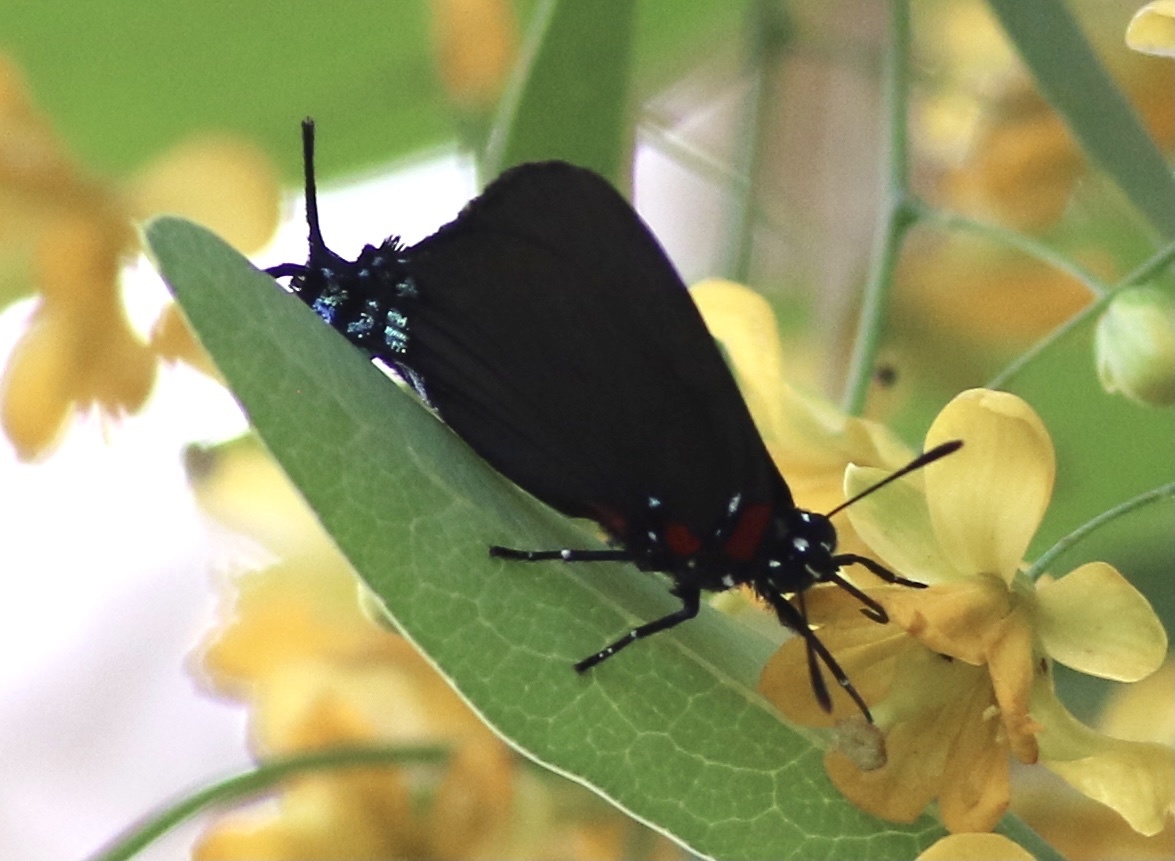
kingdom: Animalia
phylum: Arthropoda
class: Insecta
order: Lepidoptera
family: Lycaenidae
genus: Atlides
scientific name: Atlides halesus
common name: Great purple hairstreak
